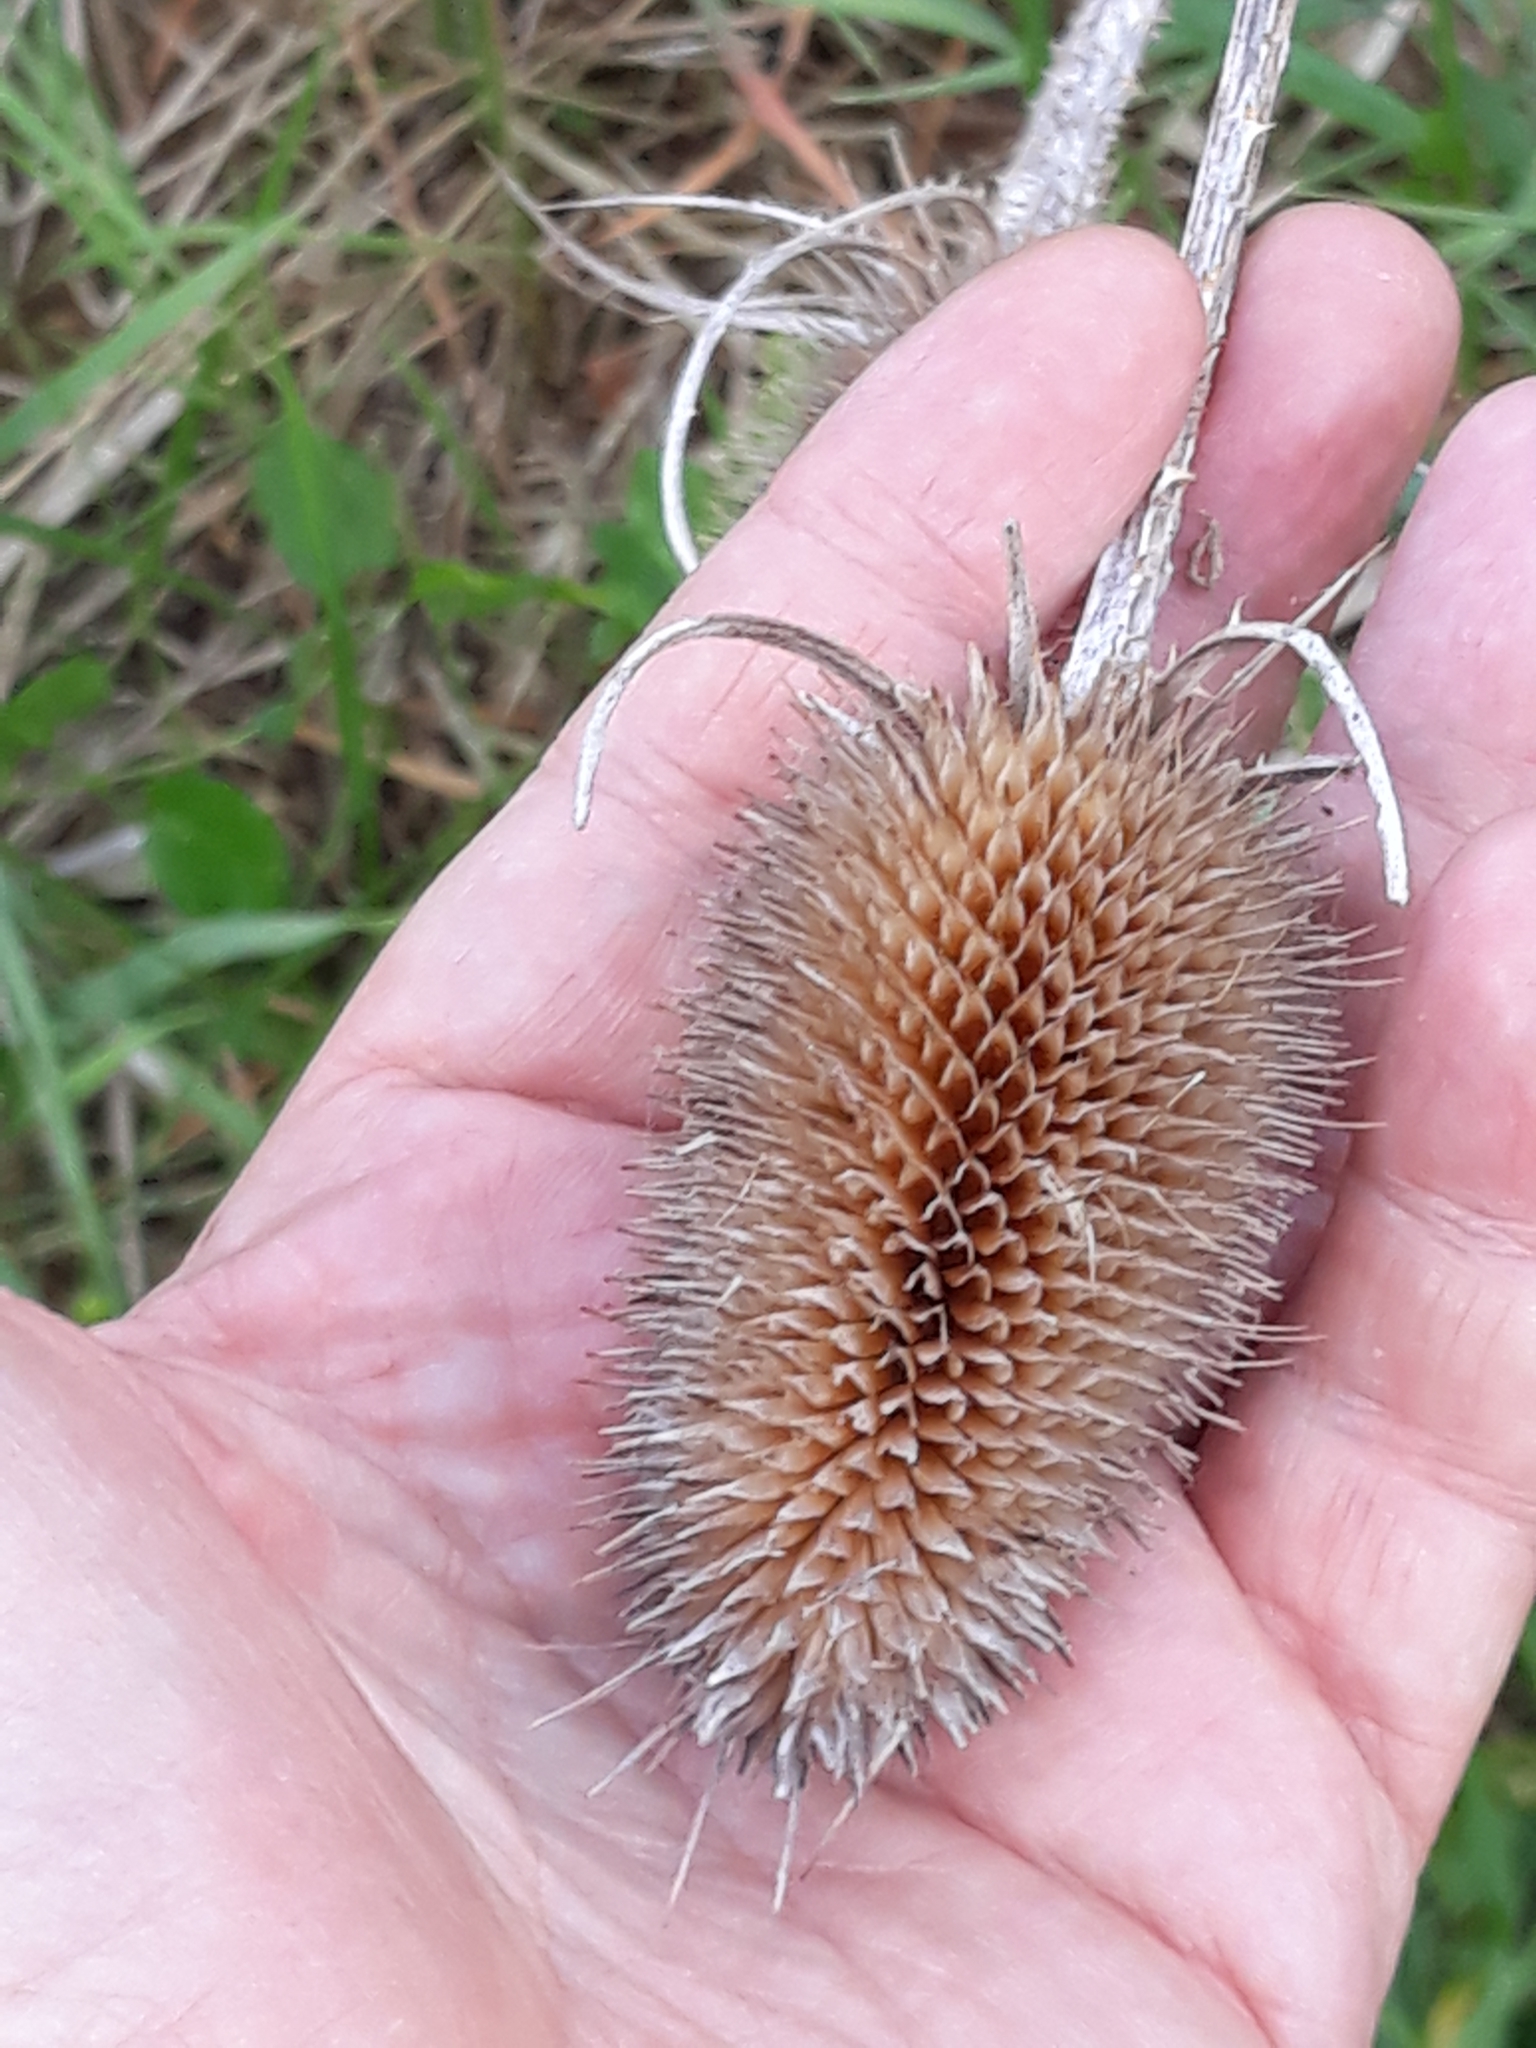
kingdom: Plantae
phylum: Tracheophyta
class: Magnoliopsida
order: Dipsacales
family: Caprifoliaceae
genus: Dipsacus
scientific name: Dipsacus fullonum
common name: Teasel
